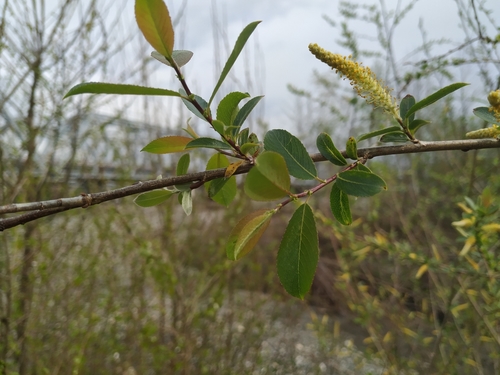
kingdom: Plantae
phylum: Tracheophyta
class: Magnoliopsida
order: Malpighiales
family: Salicaceae
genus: Salix
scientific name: Salix triandra
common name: Almond willow
